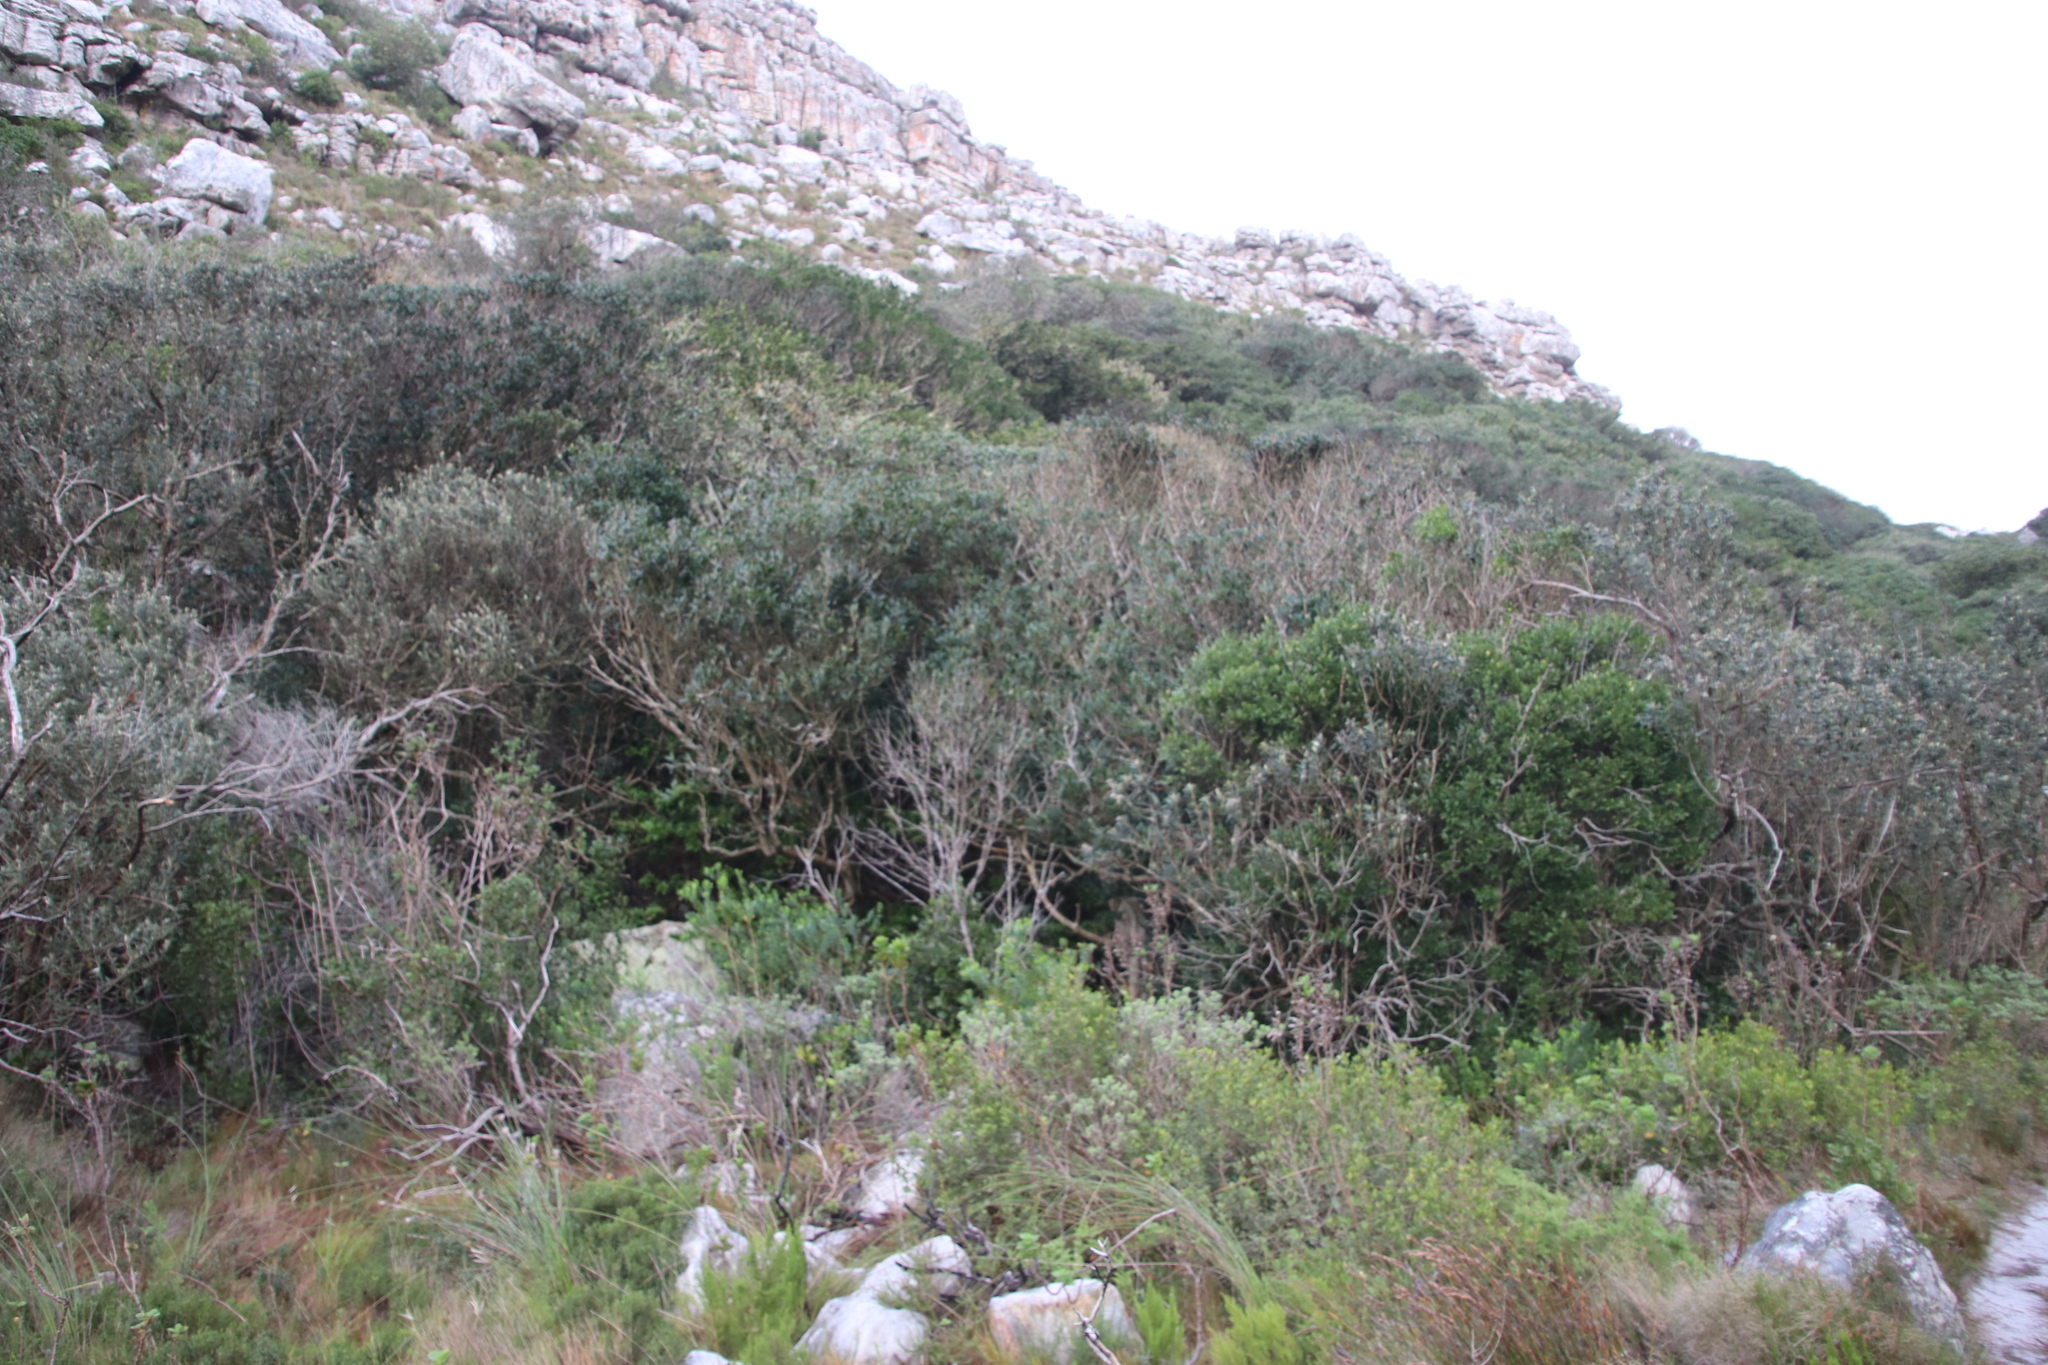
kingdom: Plantae
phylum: Tracheophyta
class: Magnoliopsida
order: Aquifoliales
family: Aquifoliaceae
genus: Ilex
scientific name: Ilex mitis
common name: African holly
